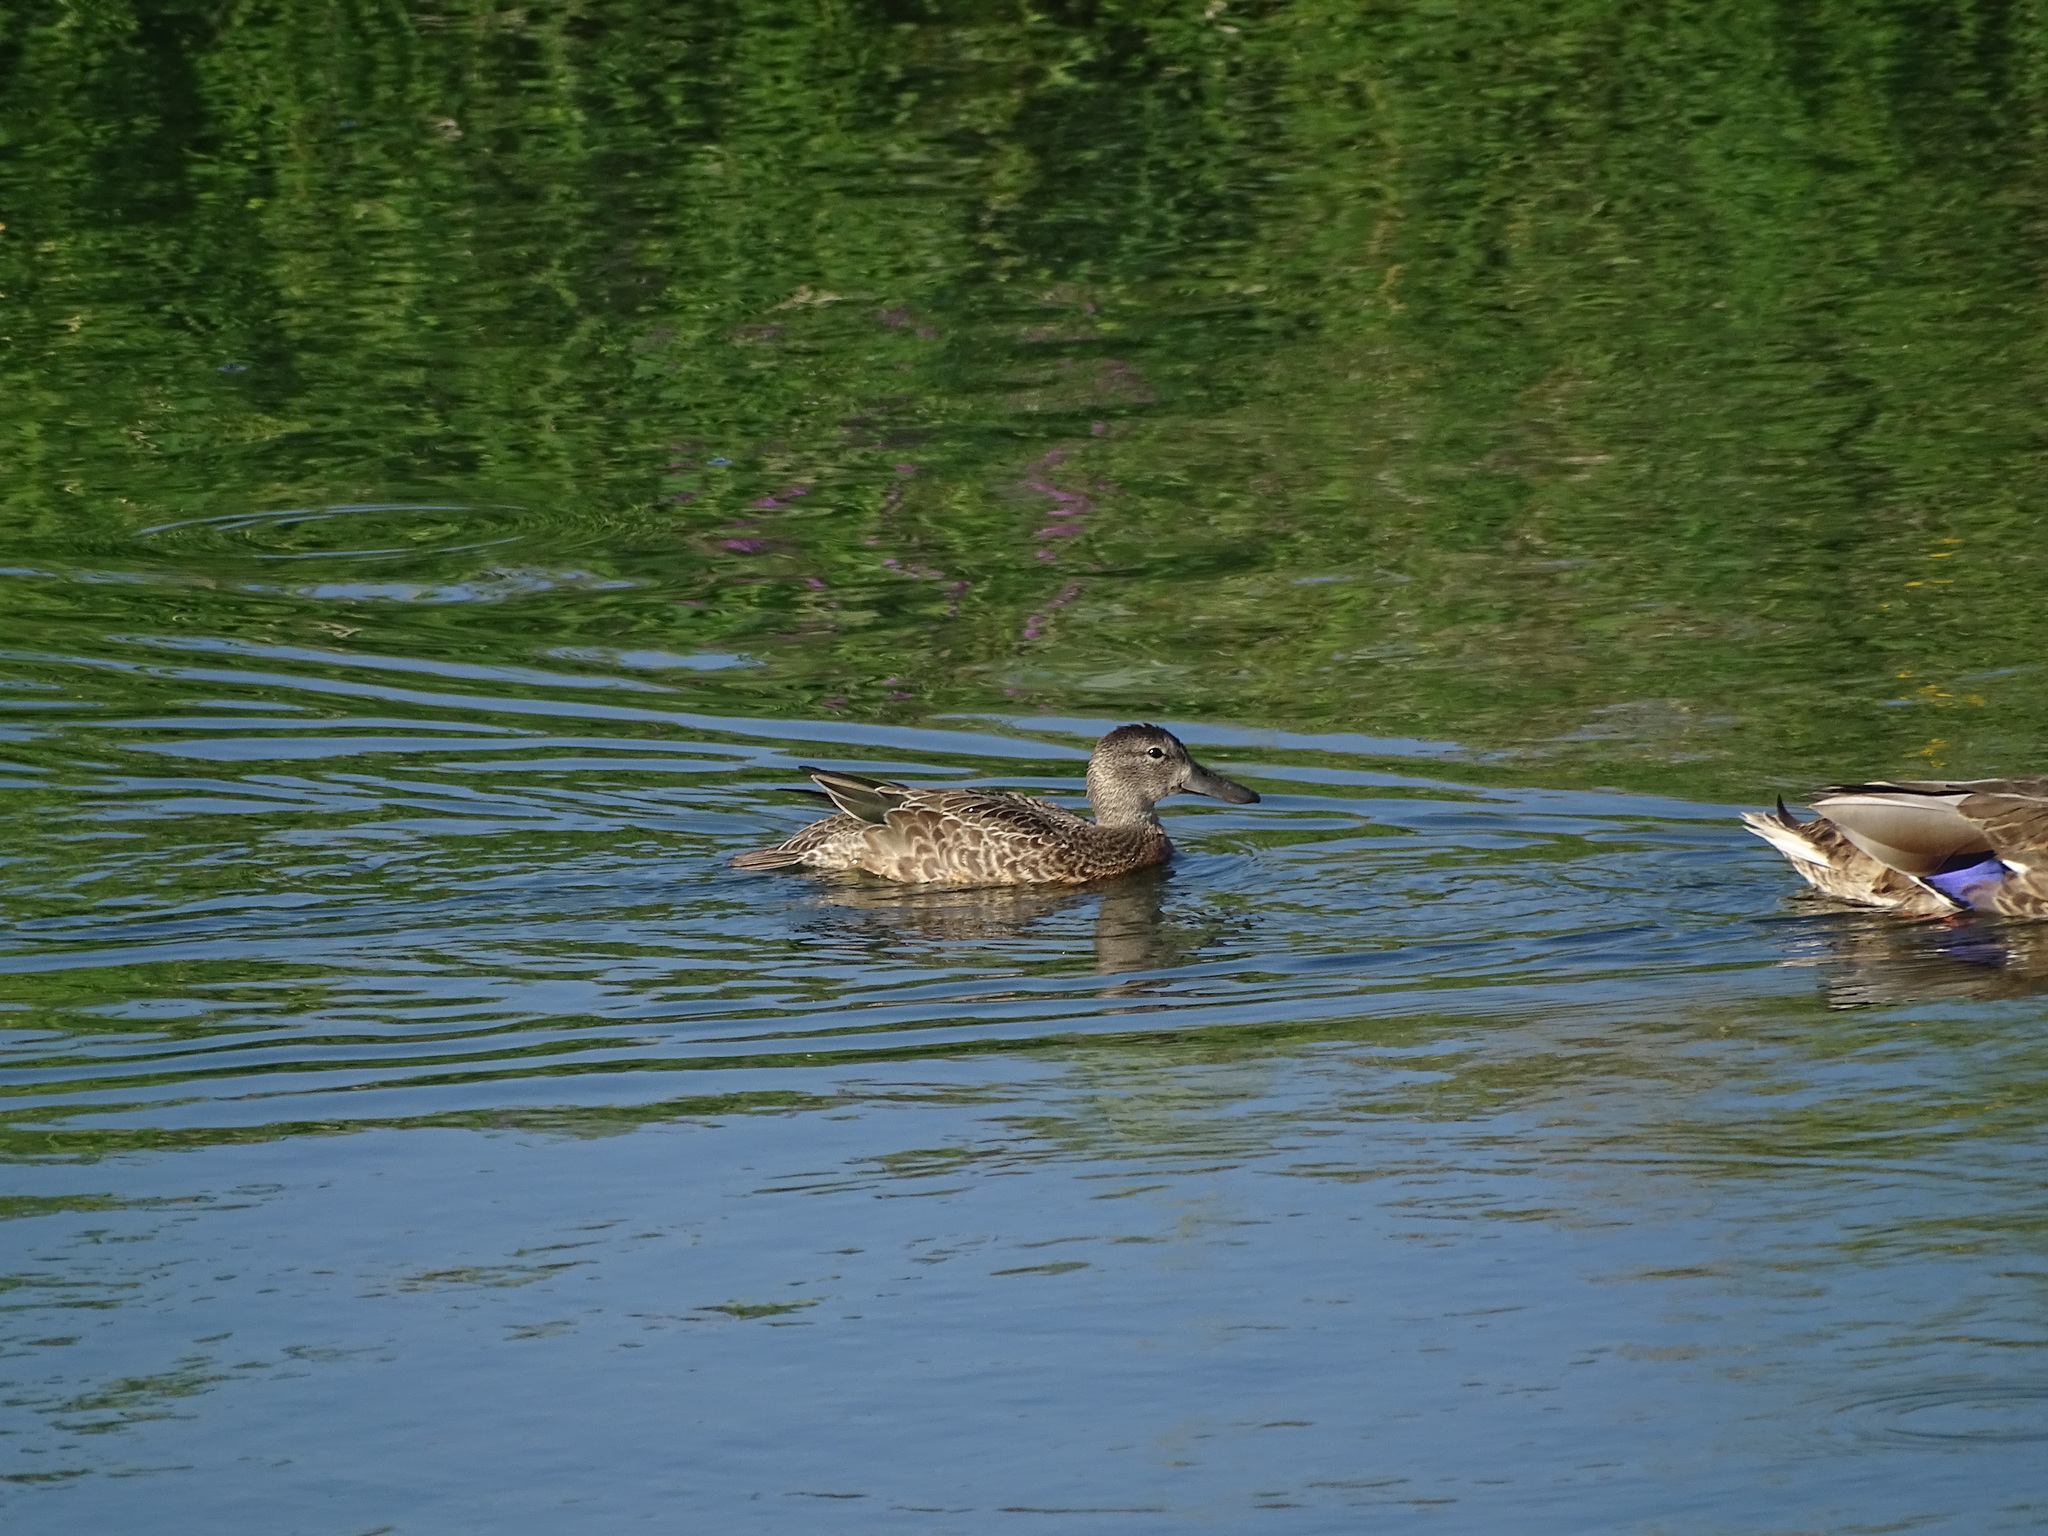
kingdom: Animalia
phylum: Chordata
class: Aves
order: Anseriformes
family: Anatidae
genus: Spatula
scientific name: Spatula discors
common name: Blue-winged teal
